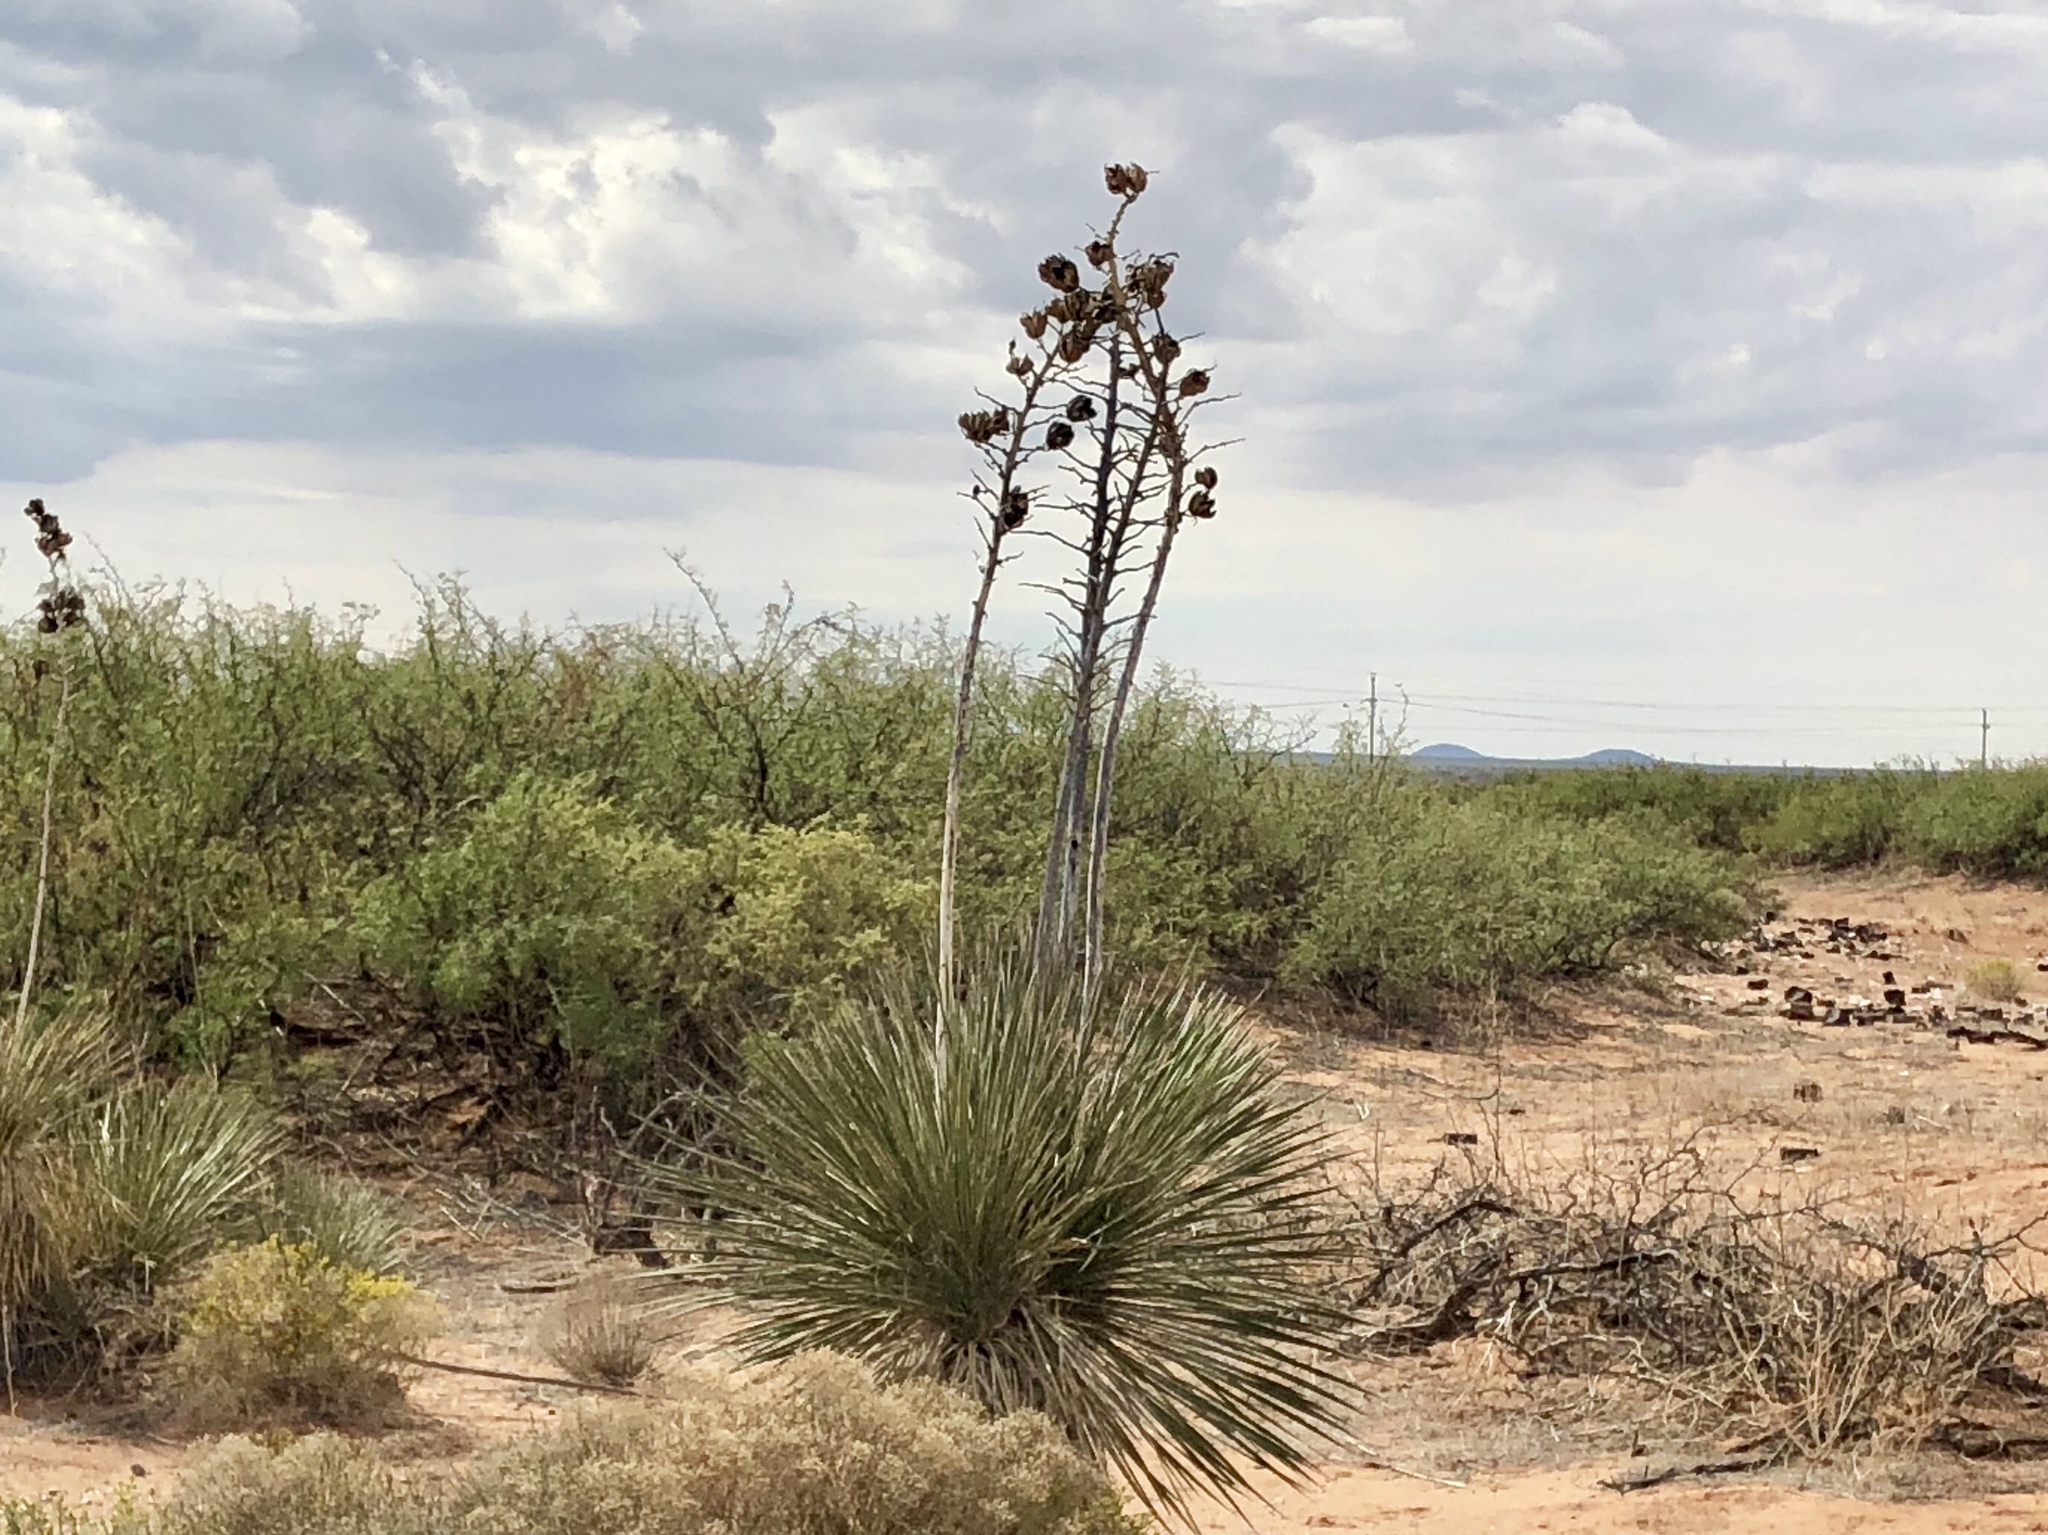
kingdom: Plantae
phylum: Tracheophyta
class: Liliopsida
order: Asparagales
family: Asparagaceae
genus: Yucca
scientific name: Yucca elata
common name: Palmella
